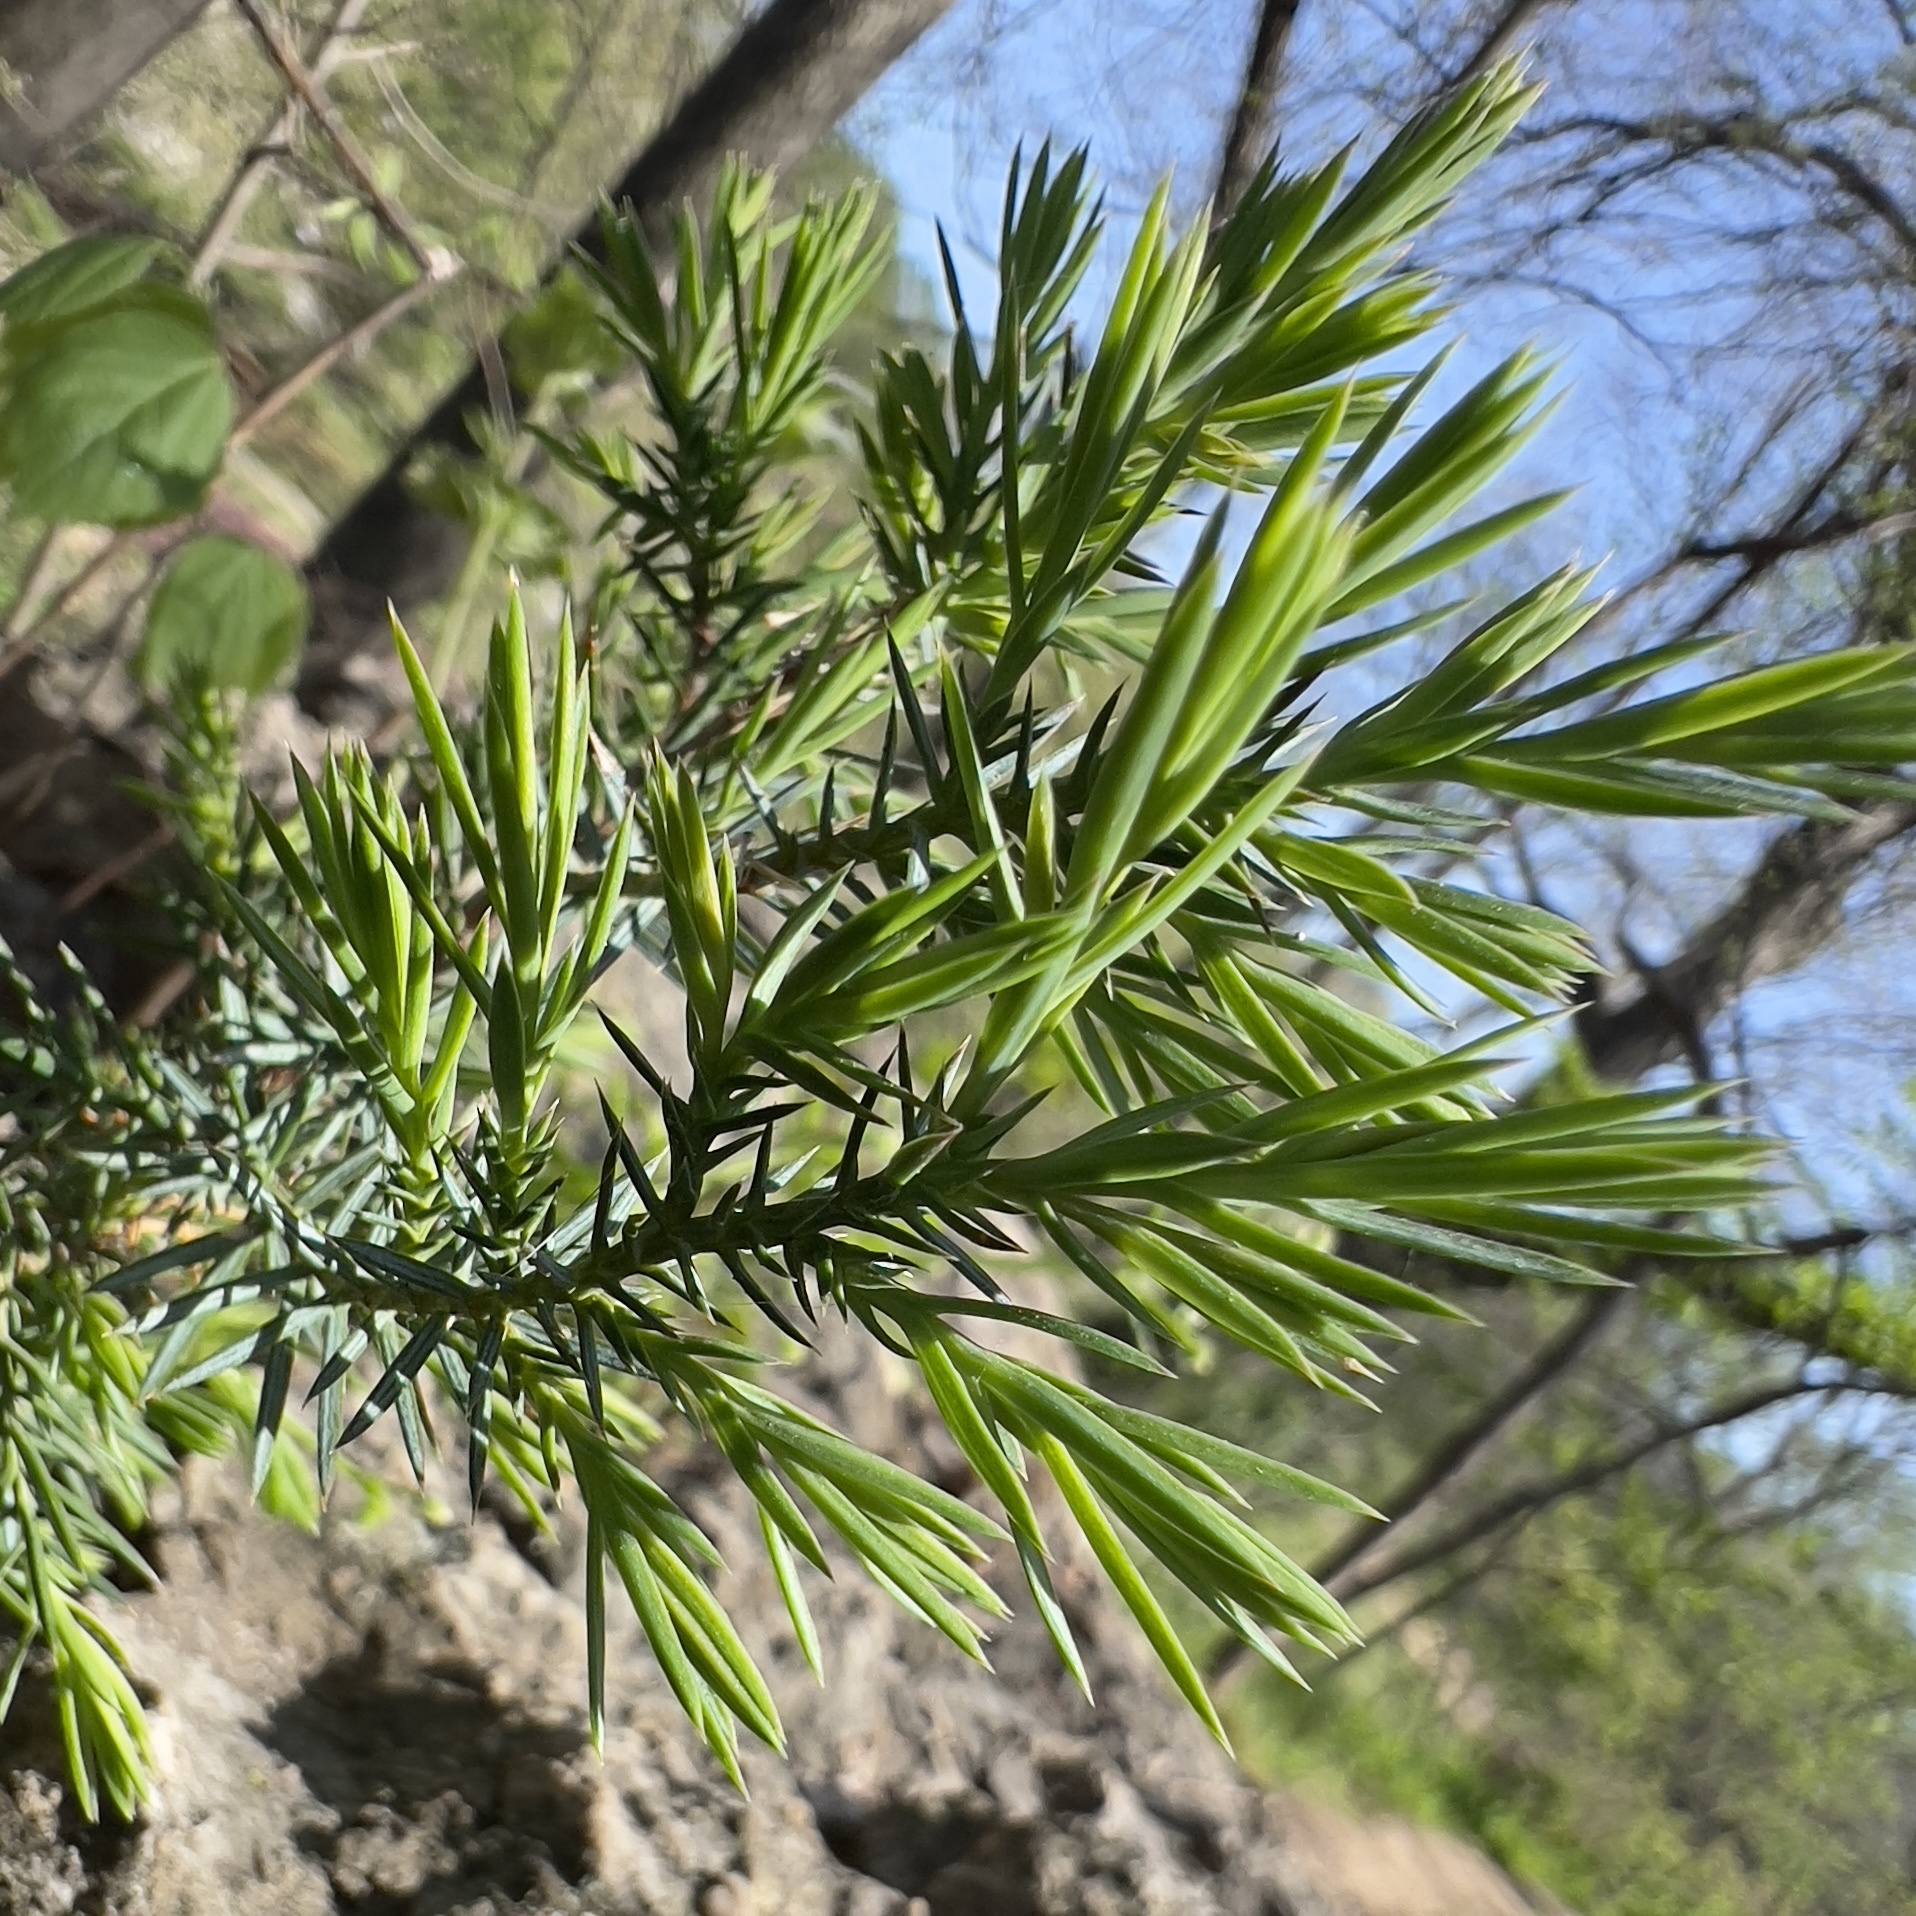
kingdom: Plantae
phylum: Tracheophyta
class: Pinopsida
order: Pinales
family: Cupressaceae
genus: Juniperus
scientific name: Juniperus virginiana
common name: Red juniper
